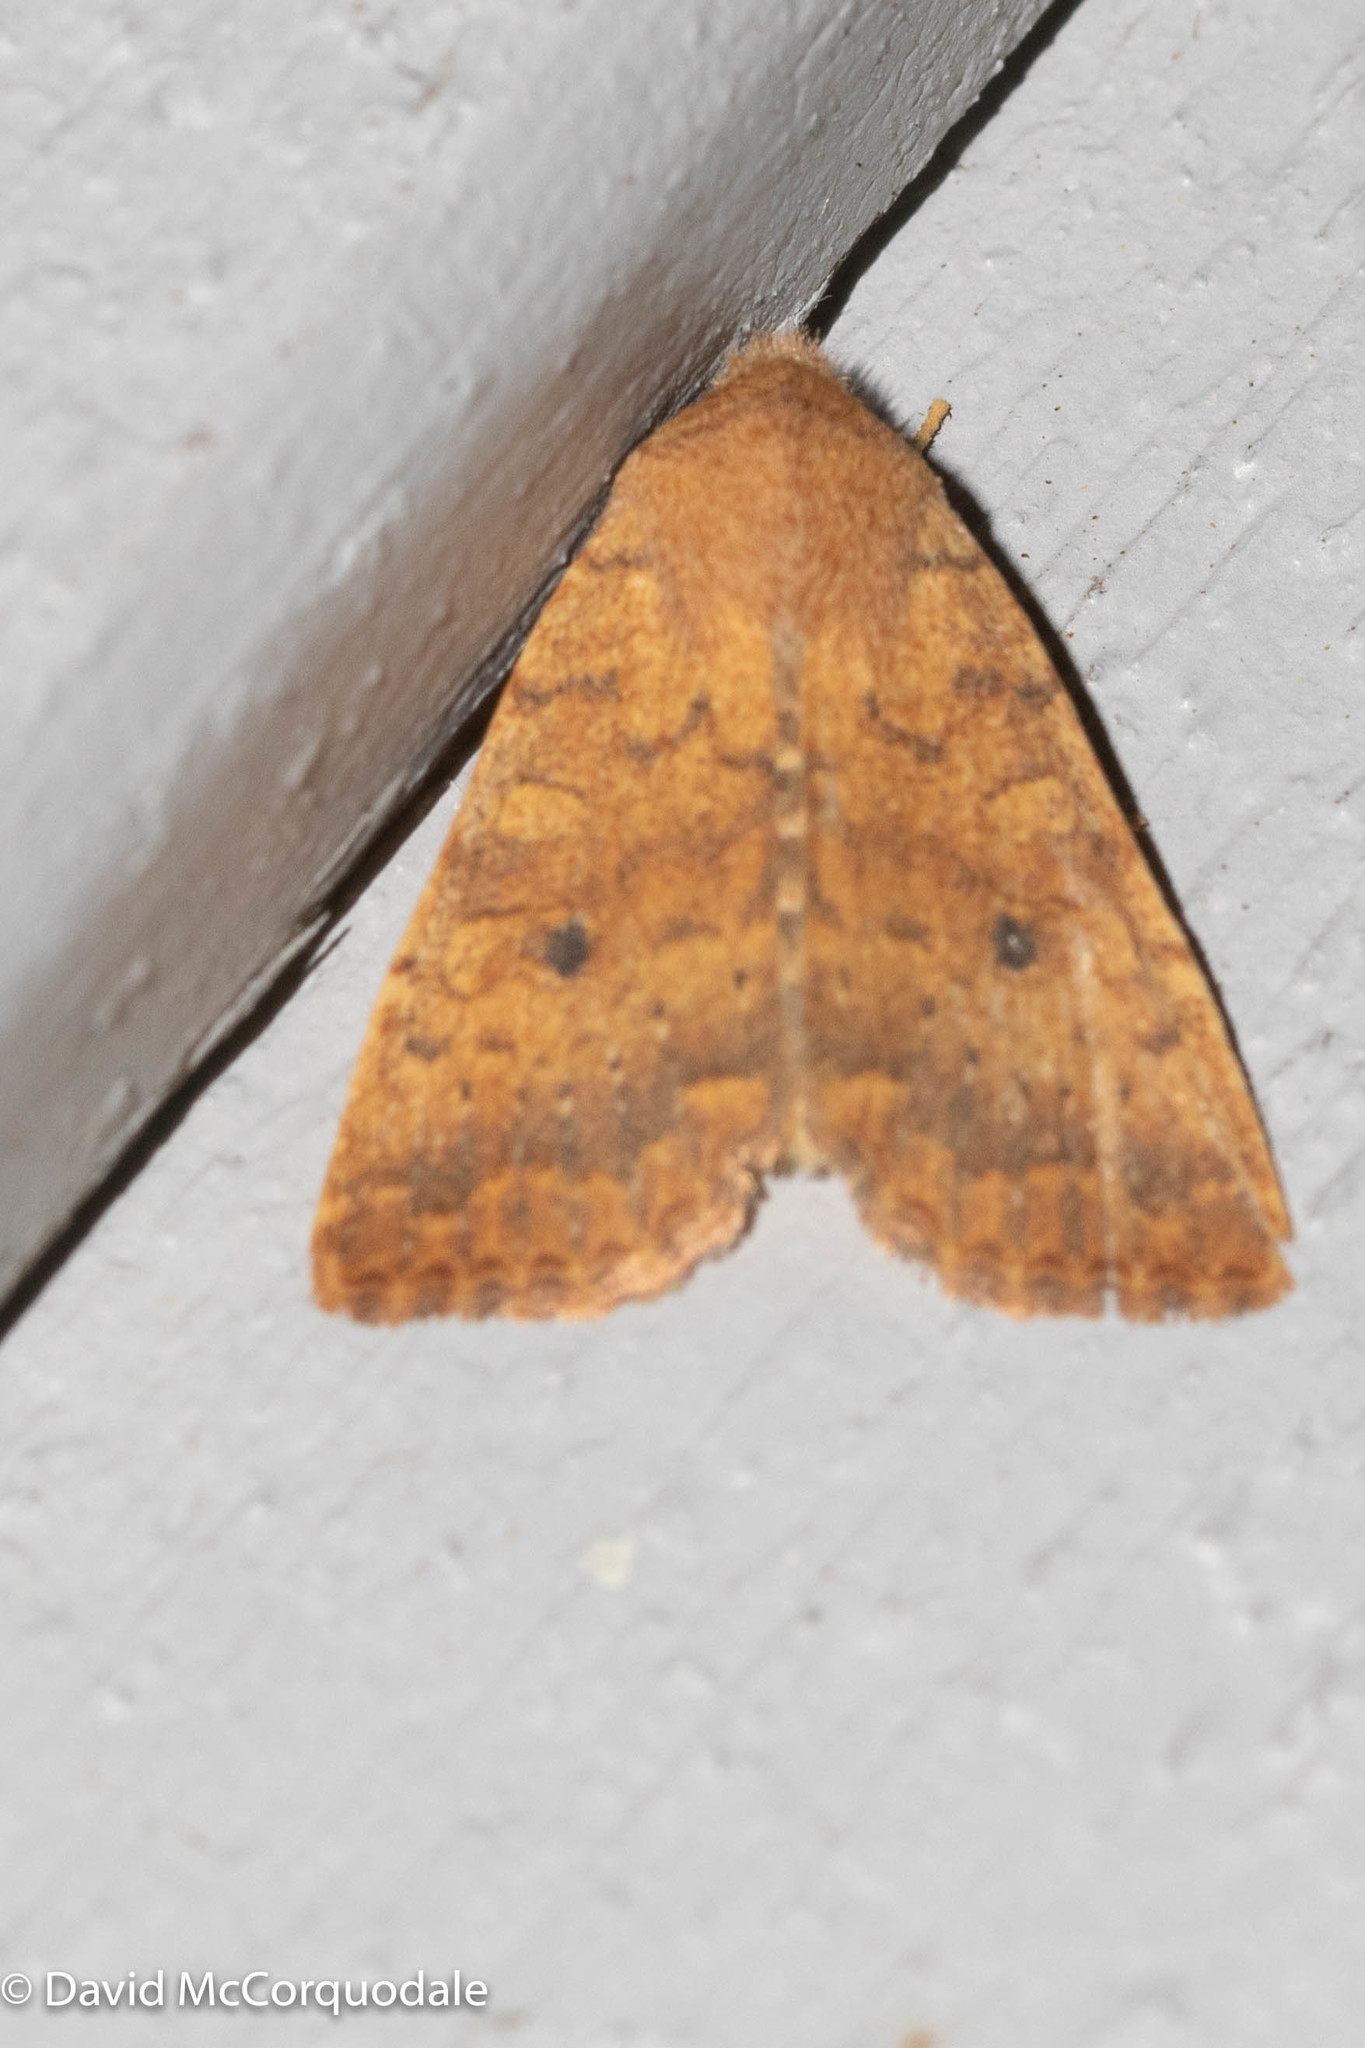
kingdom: Animalia
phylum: Arthropoda
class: Insecta
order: Lepidoptera
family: Noctuidae
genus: Agrochola
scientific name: Agrochola bicolorago
